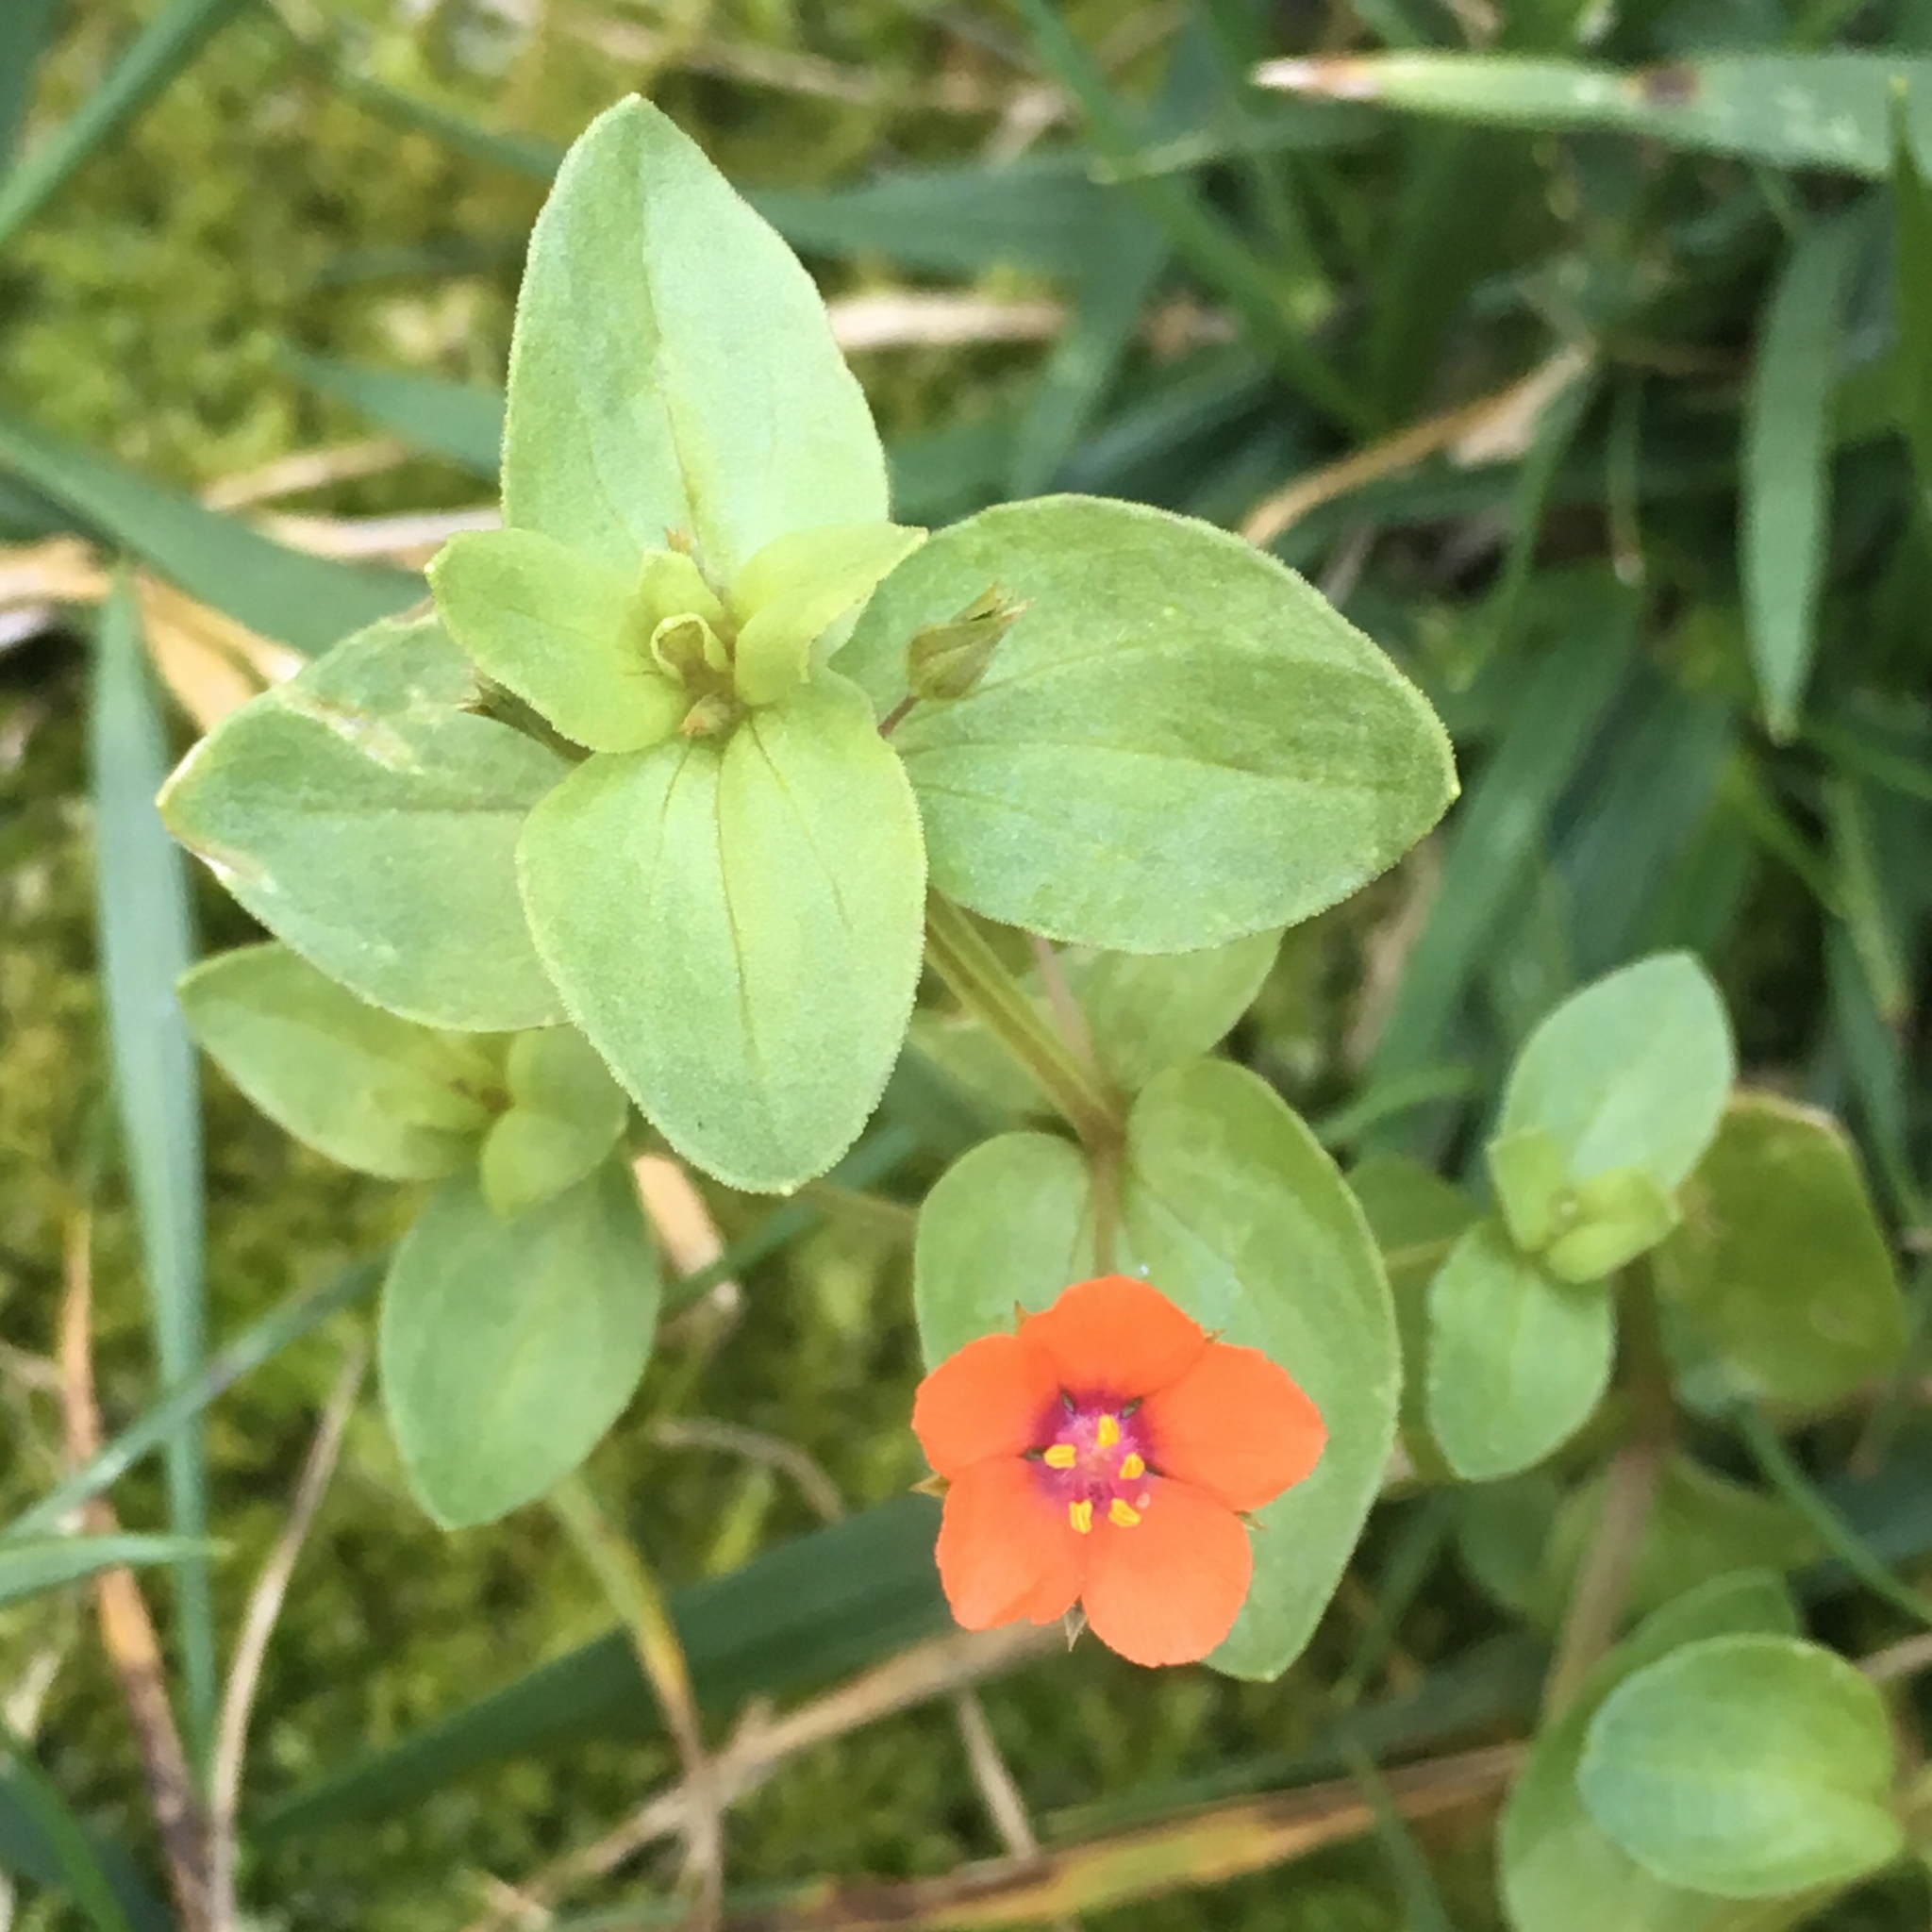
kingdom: Plantae
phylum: Tracheophyta
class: Magnoliopsida
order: Ericales
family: Primulaceae
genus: Lysimachia
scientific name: Lysimachia arvensis
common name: Scarlet pimpernel
